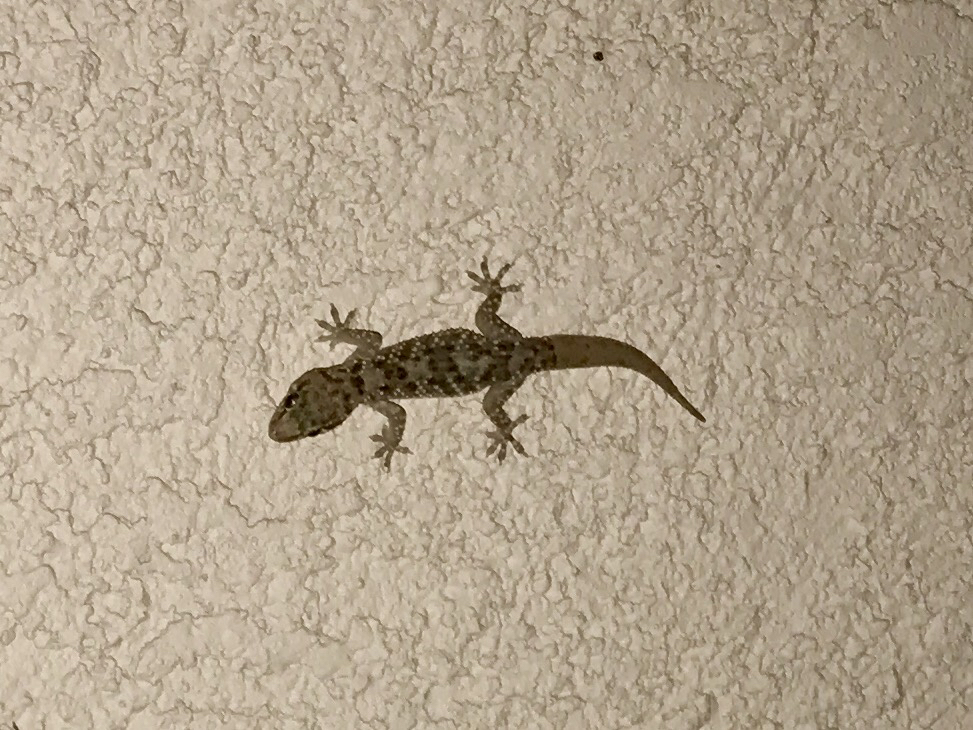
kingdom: Animalia
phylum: Chordata
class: Squamata
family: Gekkonidae
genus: Hemidactylus
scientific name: Hemidactylus turcicus
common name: Turkish gecko
